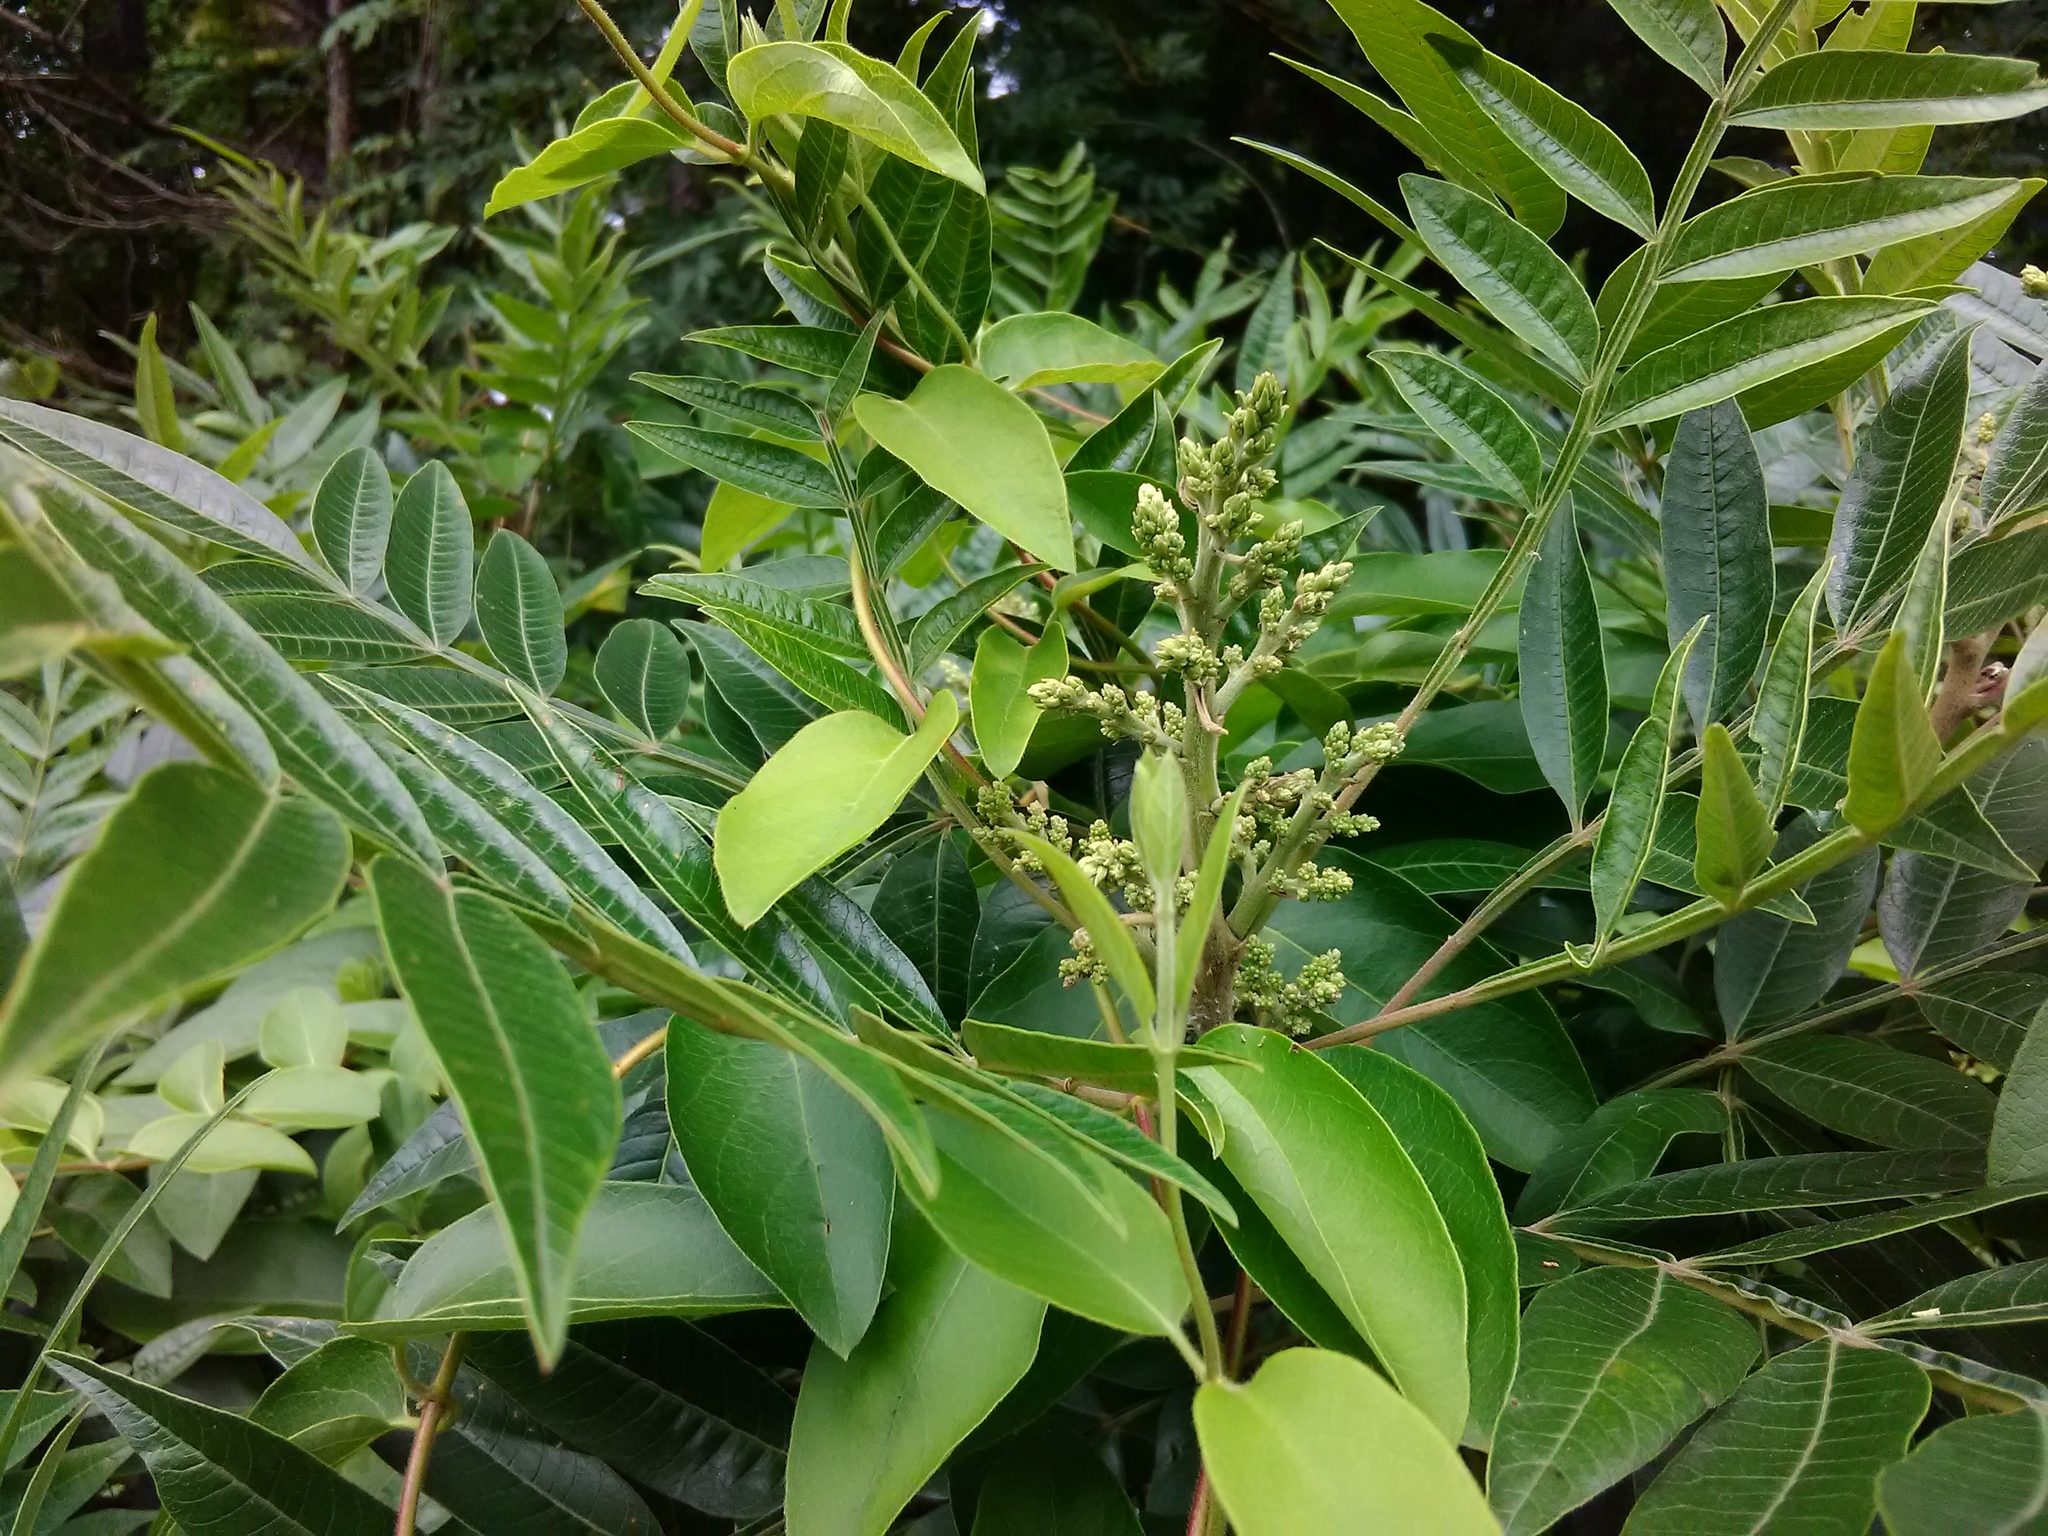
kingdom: Plantae
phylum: Tracheophyta
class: Magnoliopsida
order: Sapindales
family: Anacardiaceae
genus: Rhus
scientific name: Rhus copallina
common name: Shining sumac
